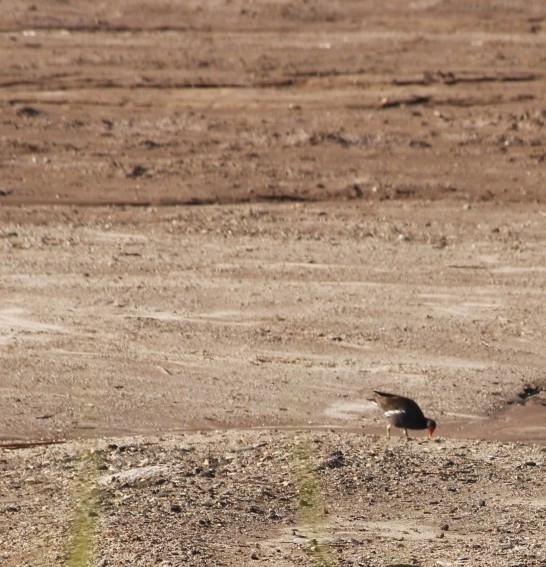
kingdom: Animalia
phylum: Chordata
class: Aves
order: Gruiformes
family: Rallidae
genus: Gallinula
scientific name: Gallinula chloropus
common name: Common moorhen
